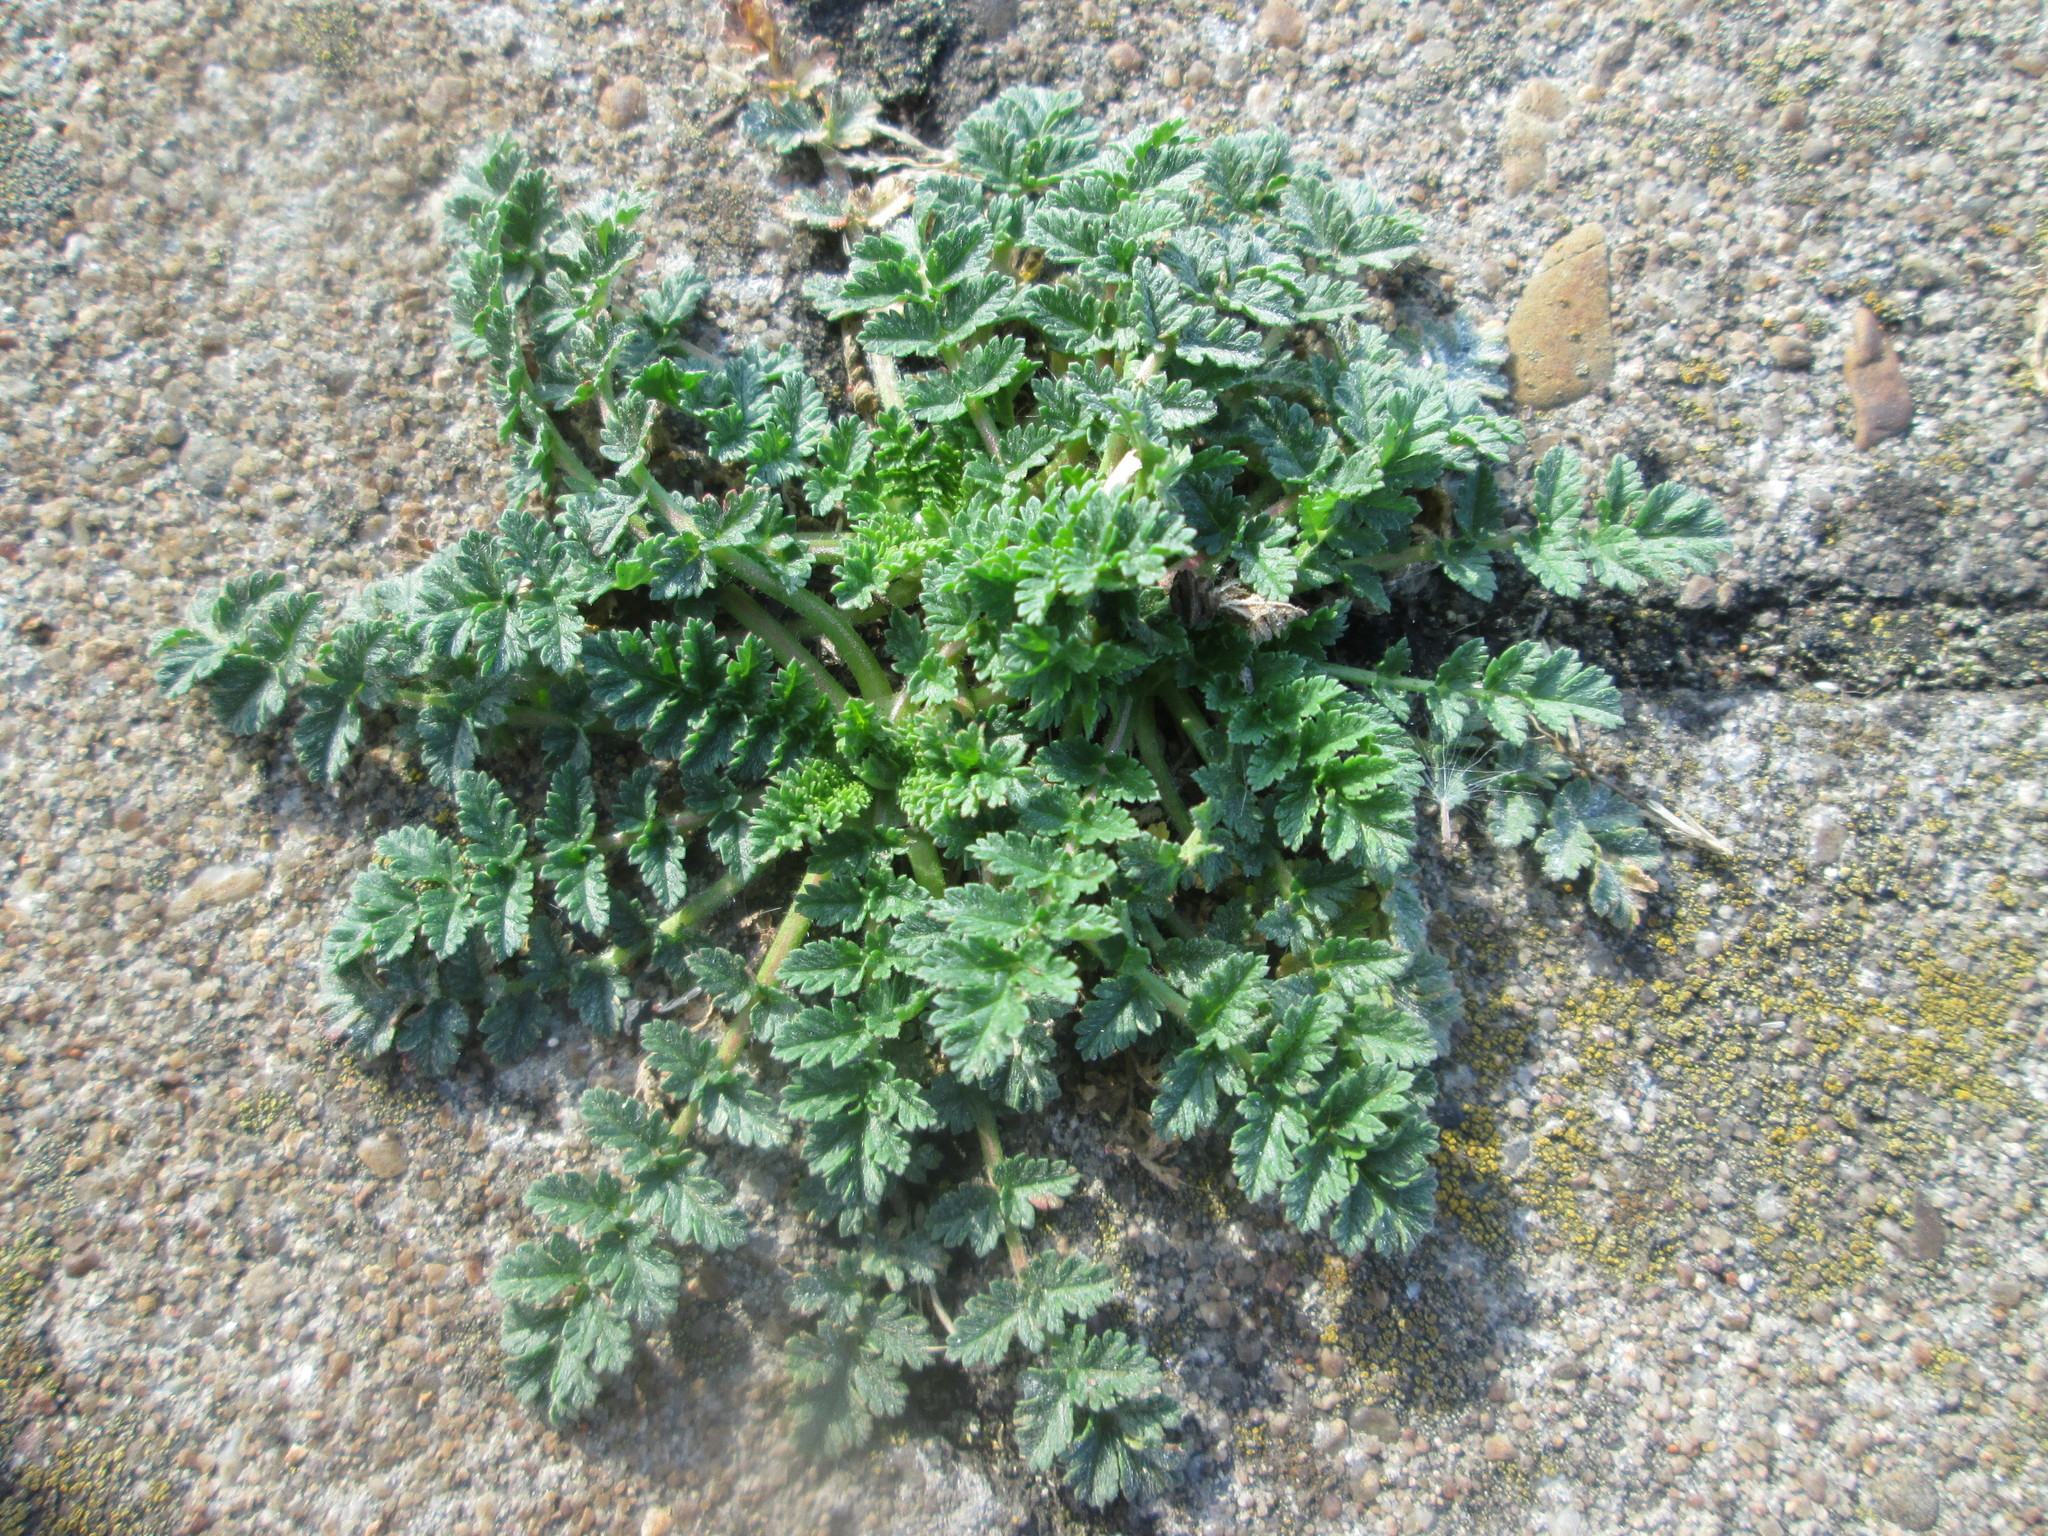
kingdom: Plantae
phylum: Tracheophyta
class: Magnoliopsida
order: Geraniales
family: Geraniaceae
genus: Erodium
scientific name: Erodium cicutarium
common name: Common stork's-bill
